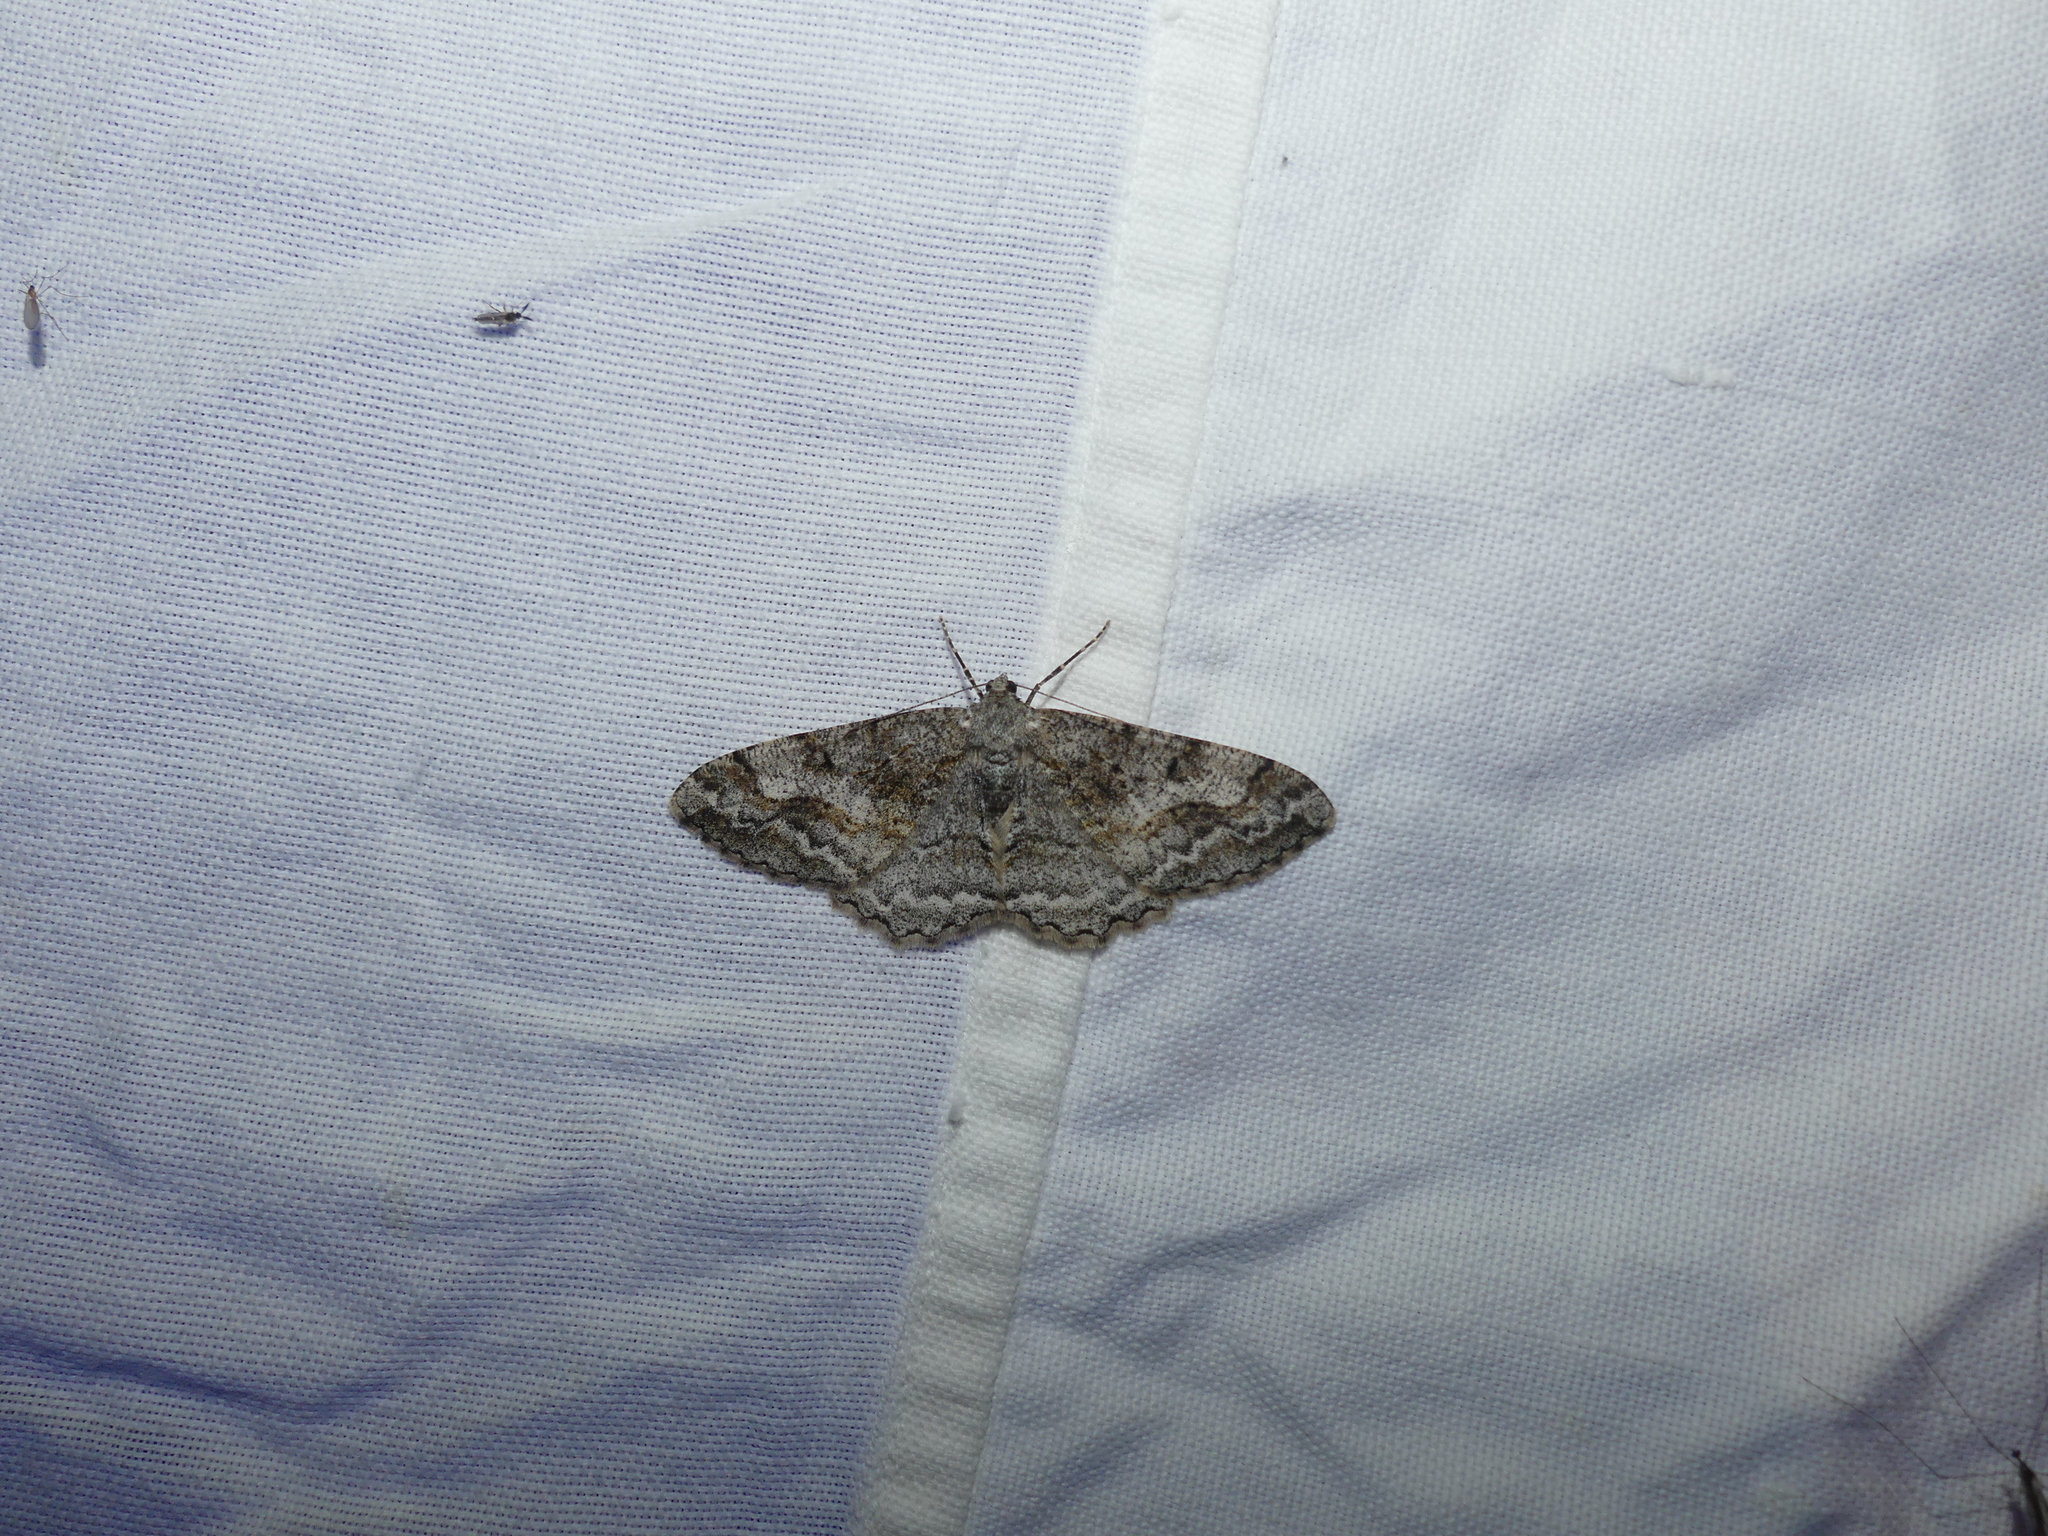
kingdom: Animalia
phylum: Arthropoda
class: Insecta
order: Lepidoptera
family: Geometridae
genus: Alcis
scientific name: Alcis repandata
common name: Mottled beauty
